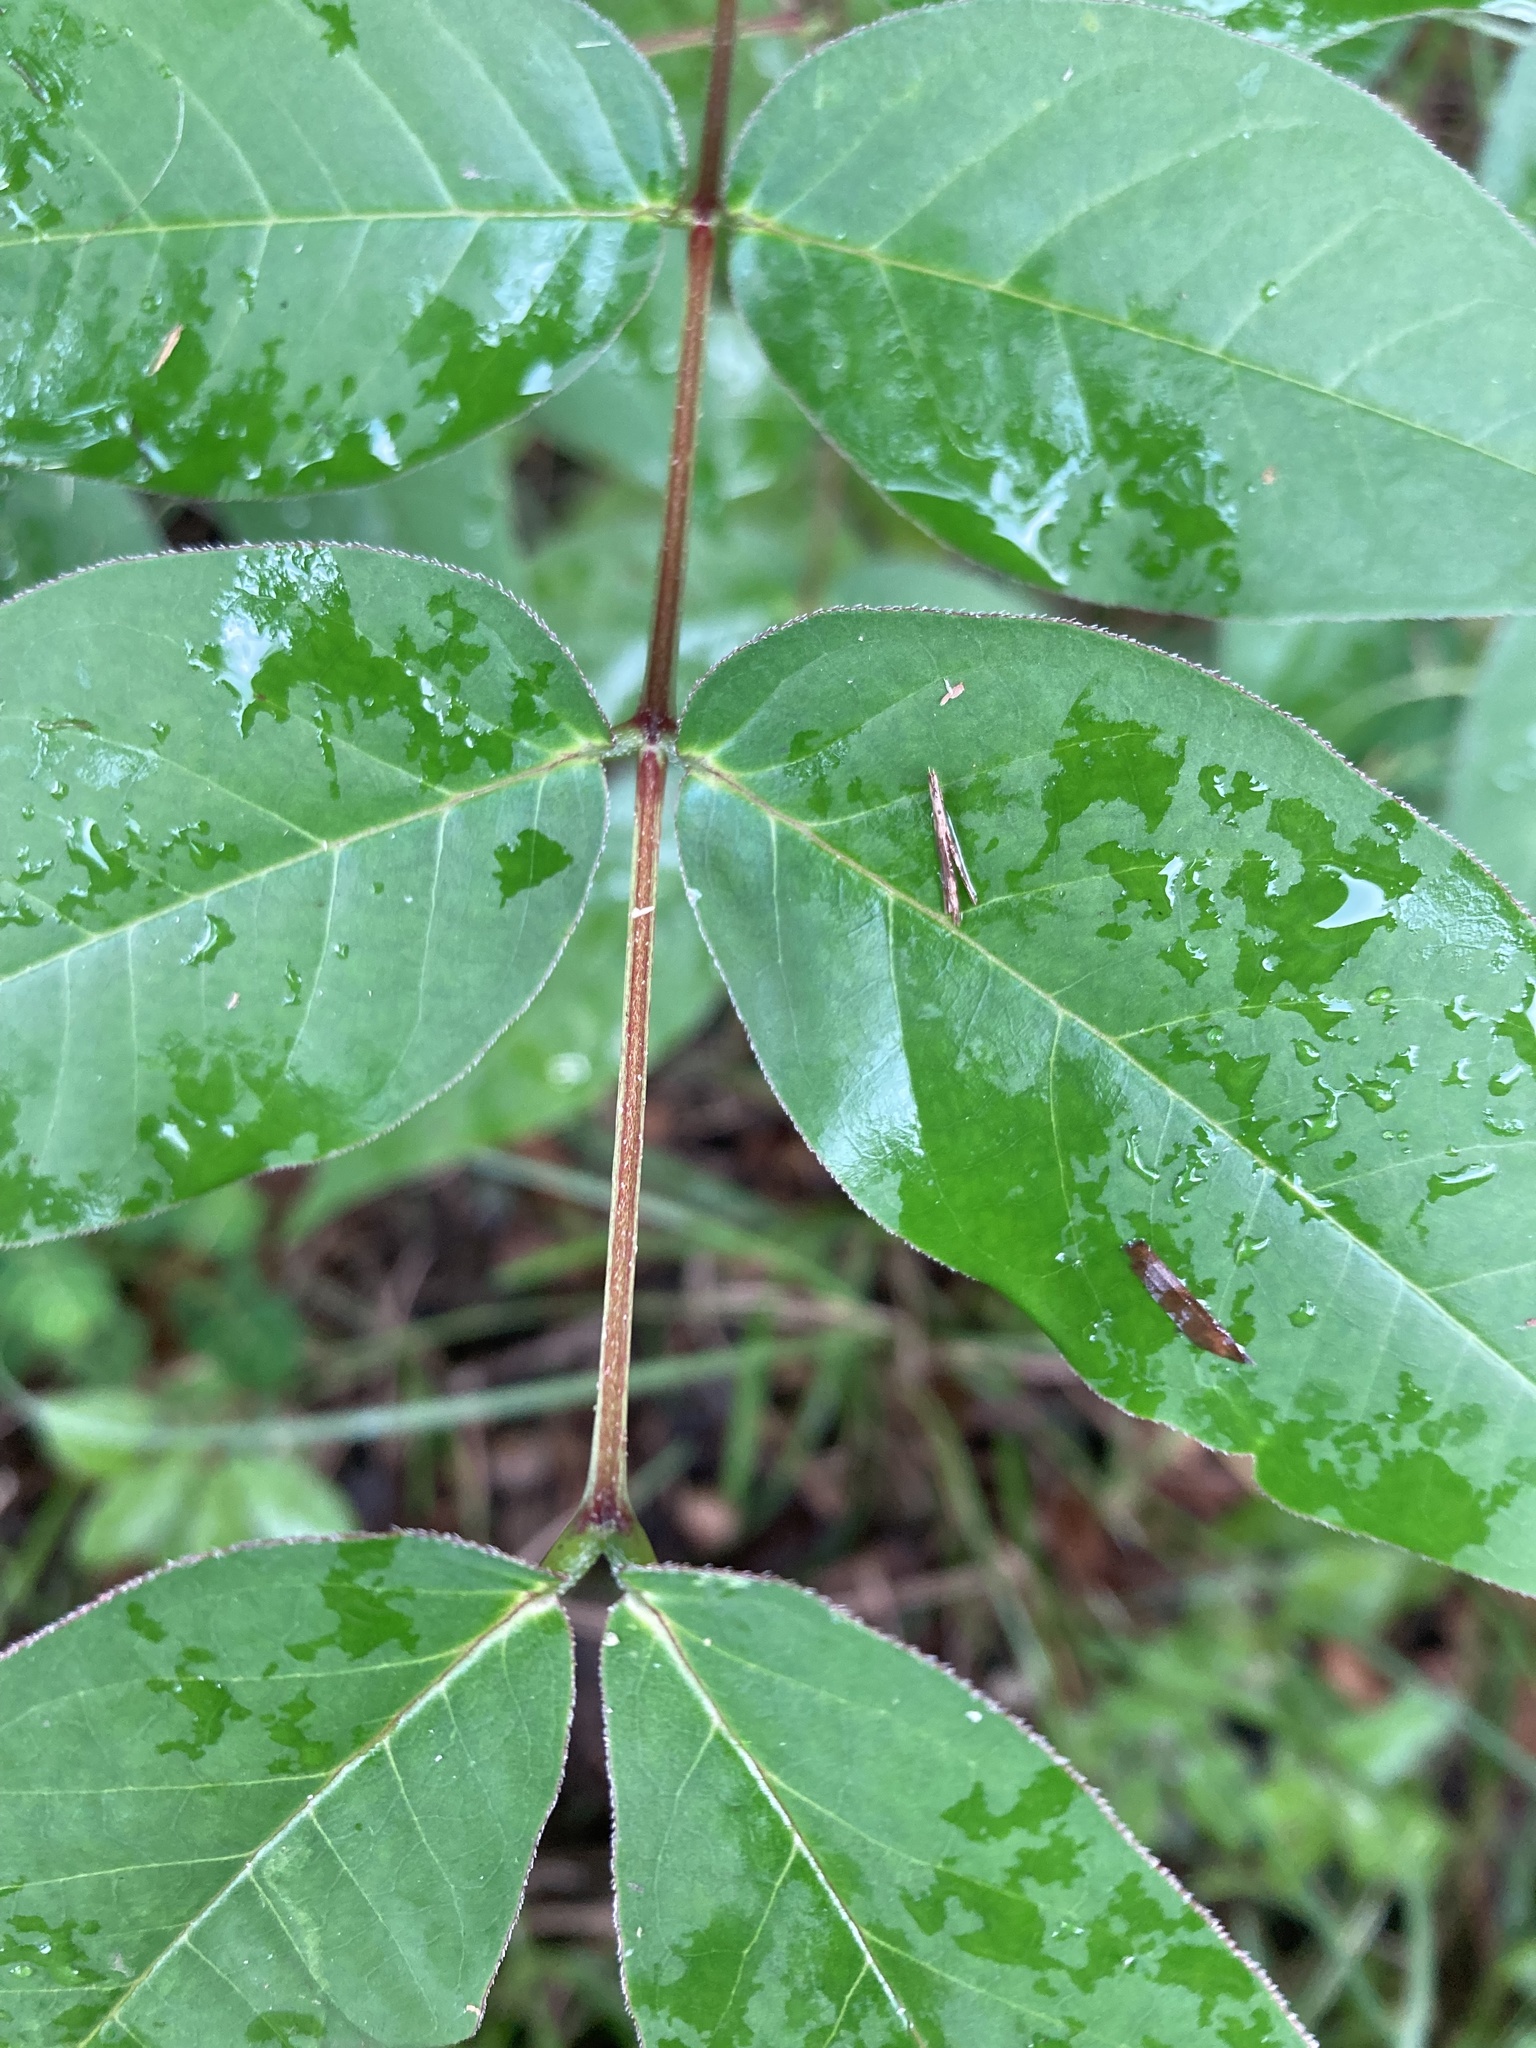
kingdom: Plantae
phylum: Tracheophyta
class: Magnoliopsida
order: Fabales
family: Fabaceae
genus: Senna
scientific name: Senna occidentalis
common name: Septicweed
